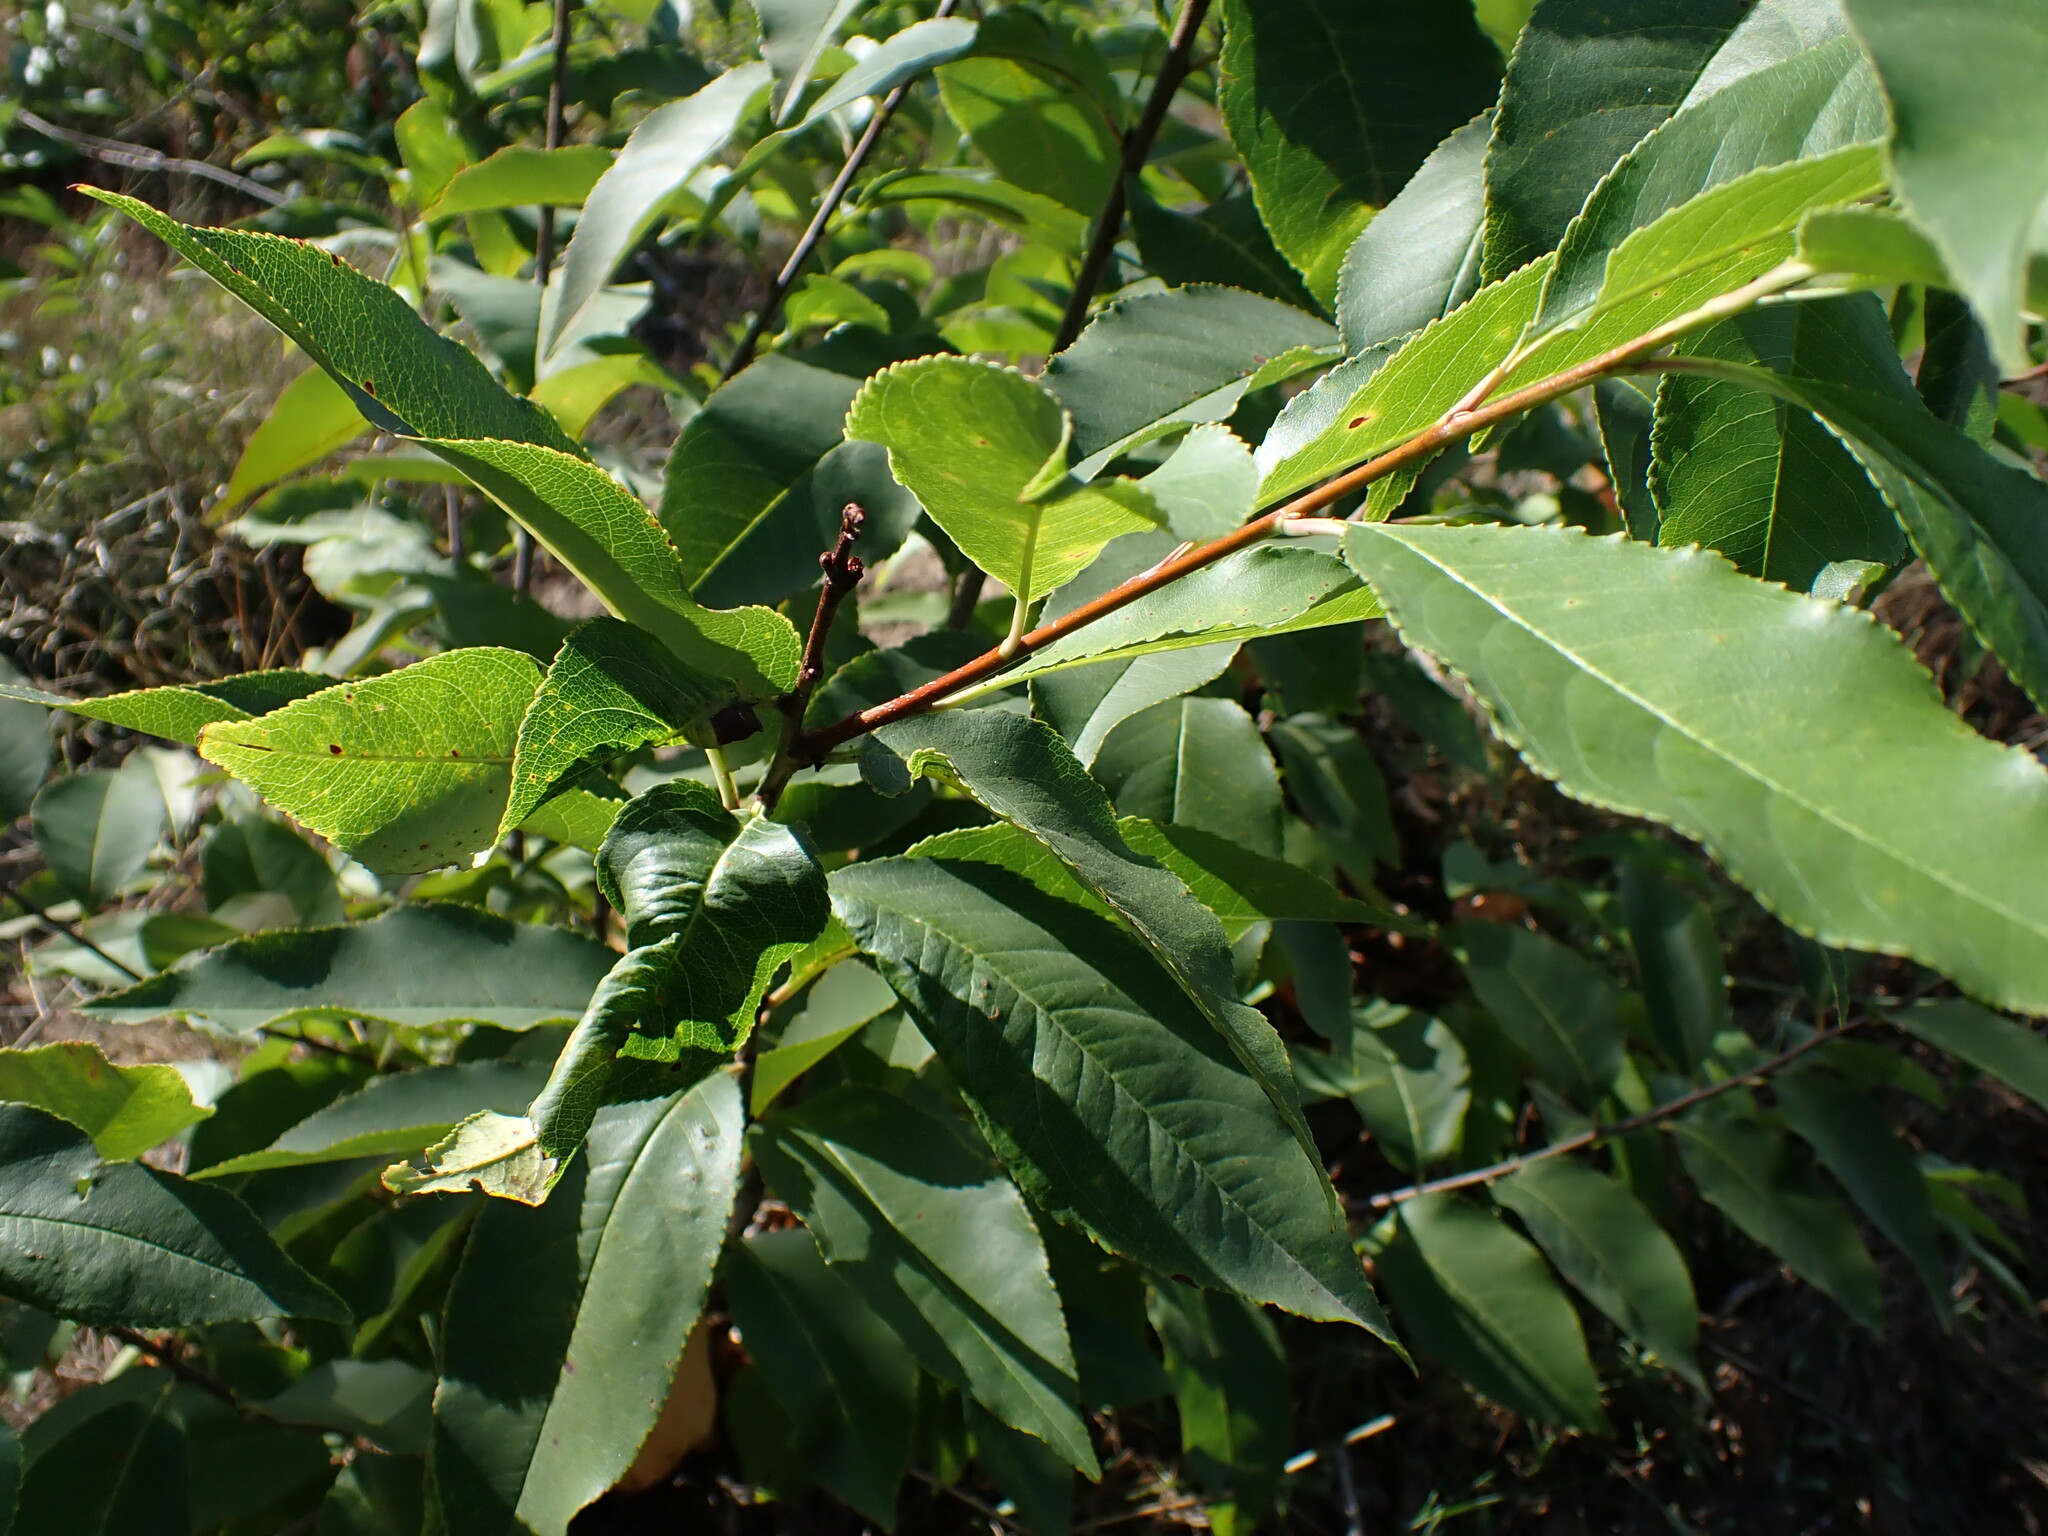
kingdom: Plantae
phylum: Tracheophyta
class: Magnoliopsida
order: Rosales
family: Rosaceae
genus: Prunus
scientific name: Prunus serotina
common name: Black cherry
